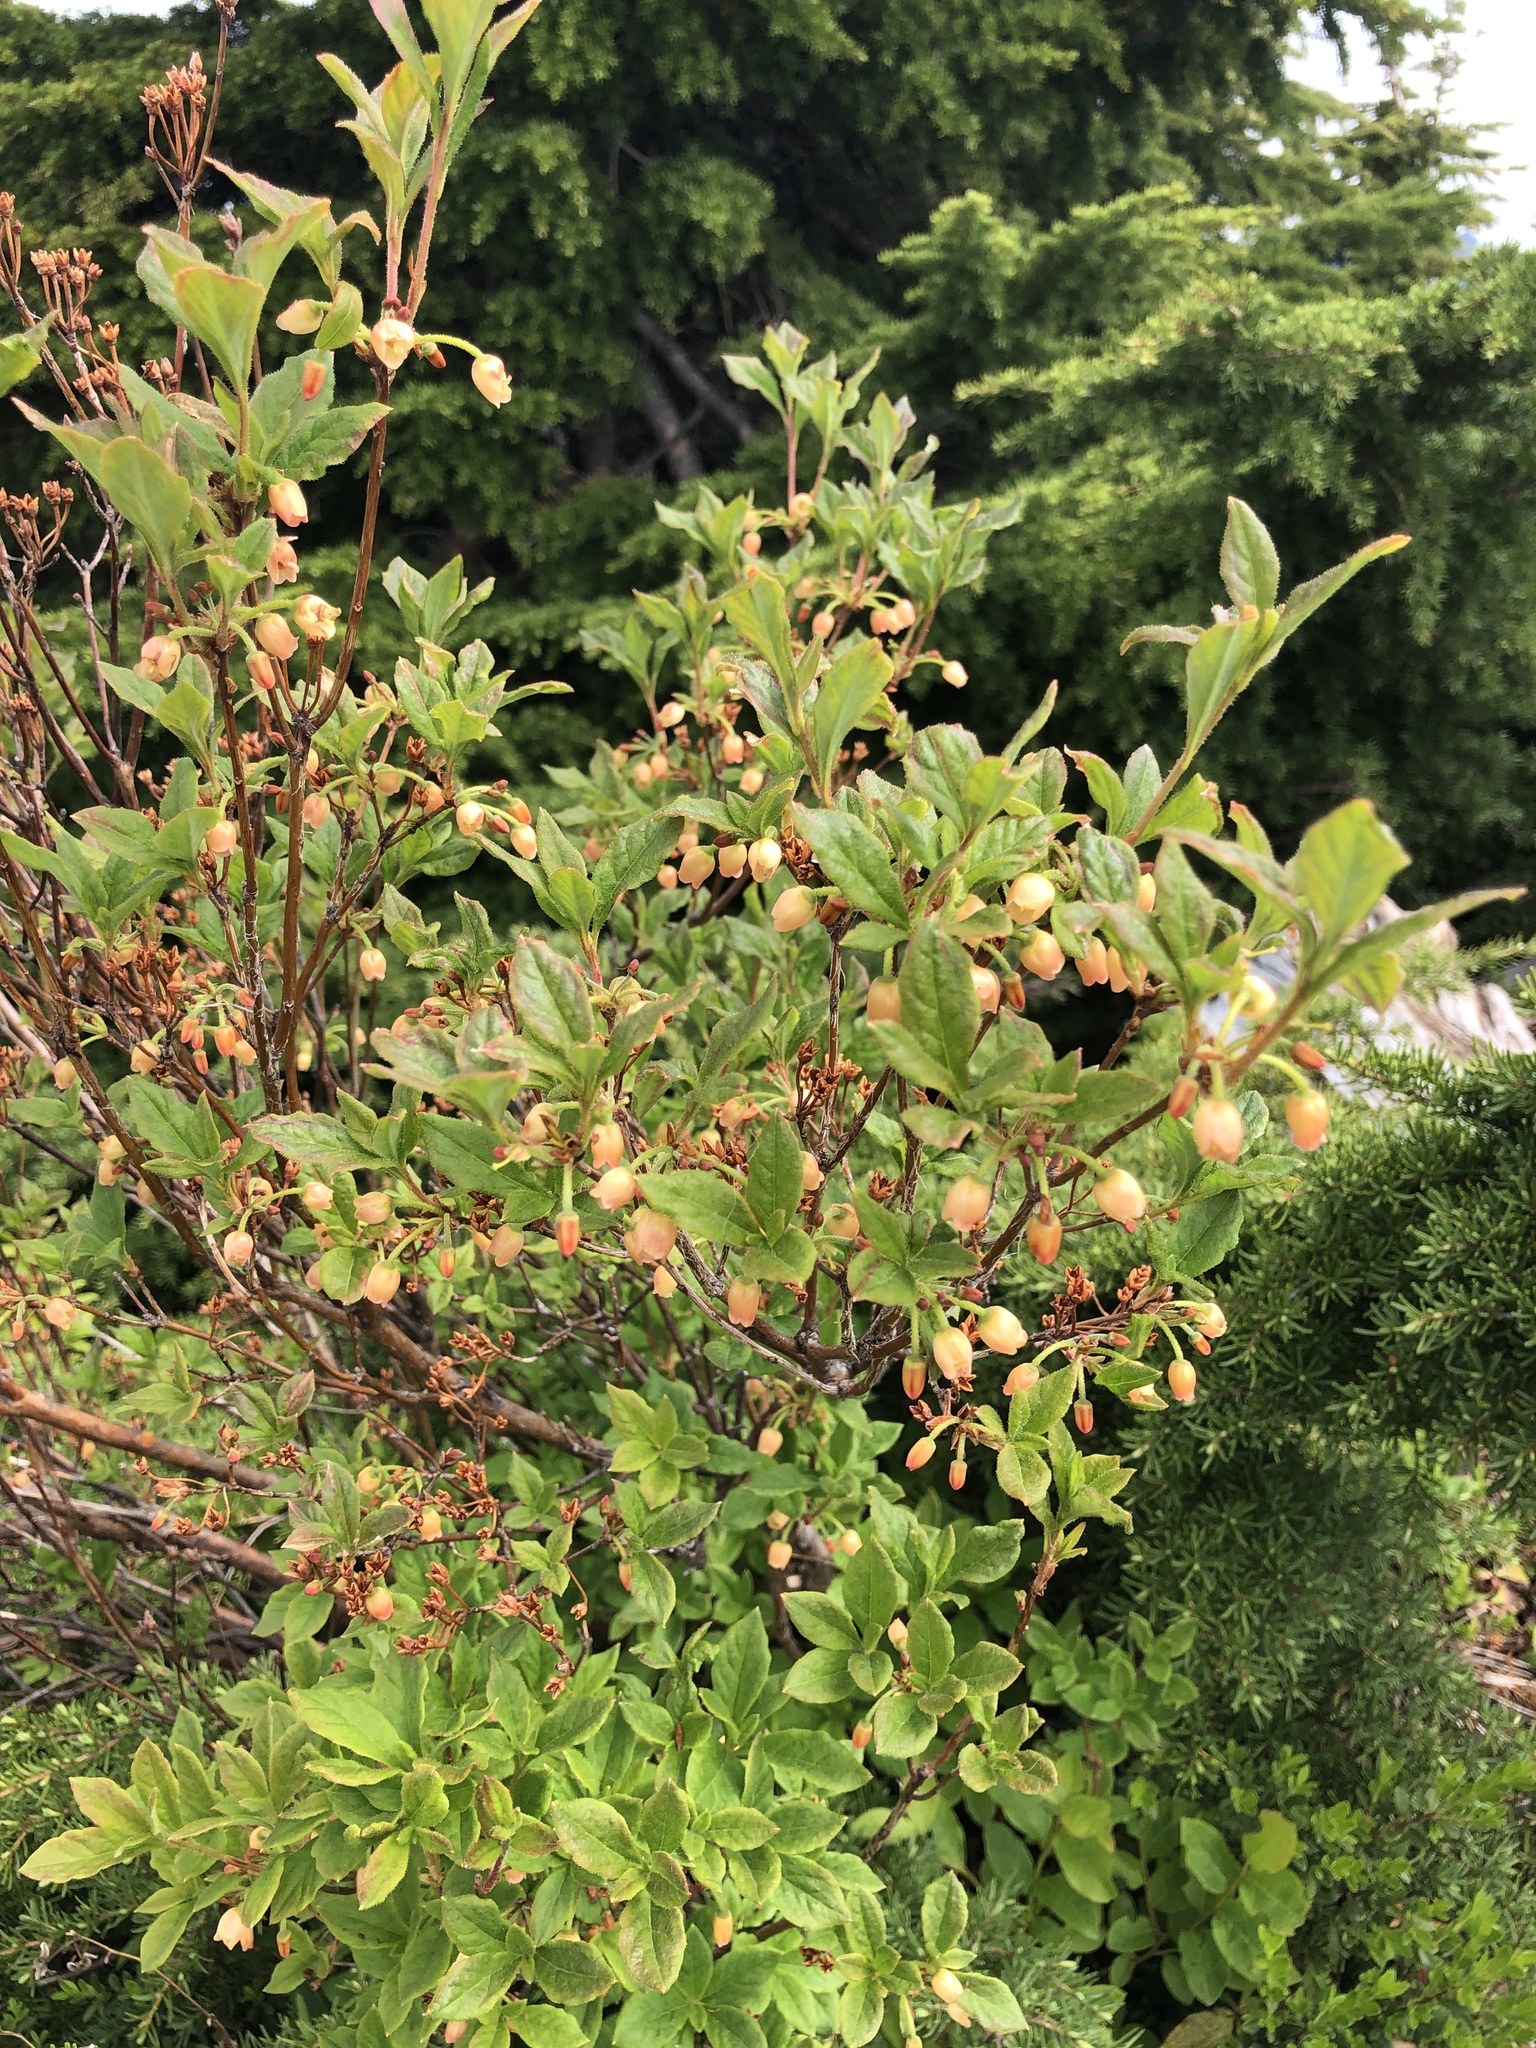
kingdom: Plantae
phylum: Tracheophyta
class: Magnoliopsida
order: Ericales
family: Ericaceae
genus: Rhododendron
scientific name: Rhododendron menziesii
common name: Pacific menziesia
